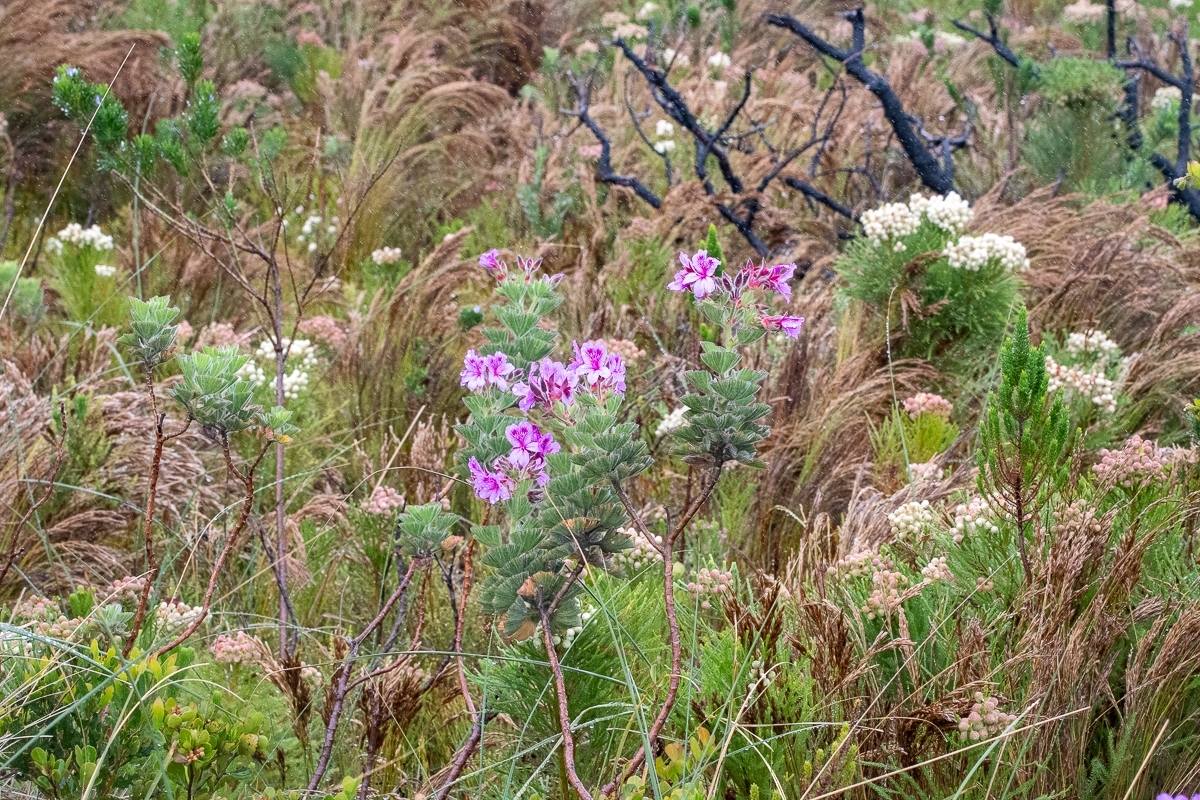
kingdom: Plantae
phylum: Tracheophyta
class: Magnoliopsida
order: Geraniales
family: Geraniaceae
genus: Pelargonium
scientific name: Pelargonium cucullatum
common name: Tree pelargonium
